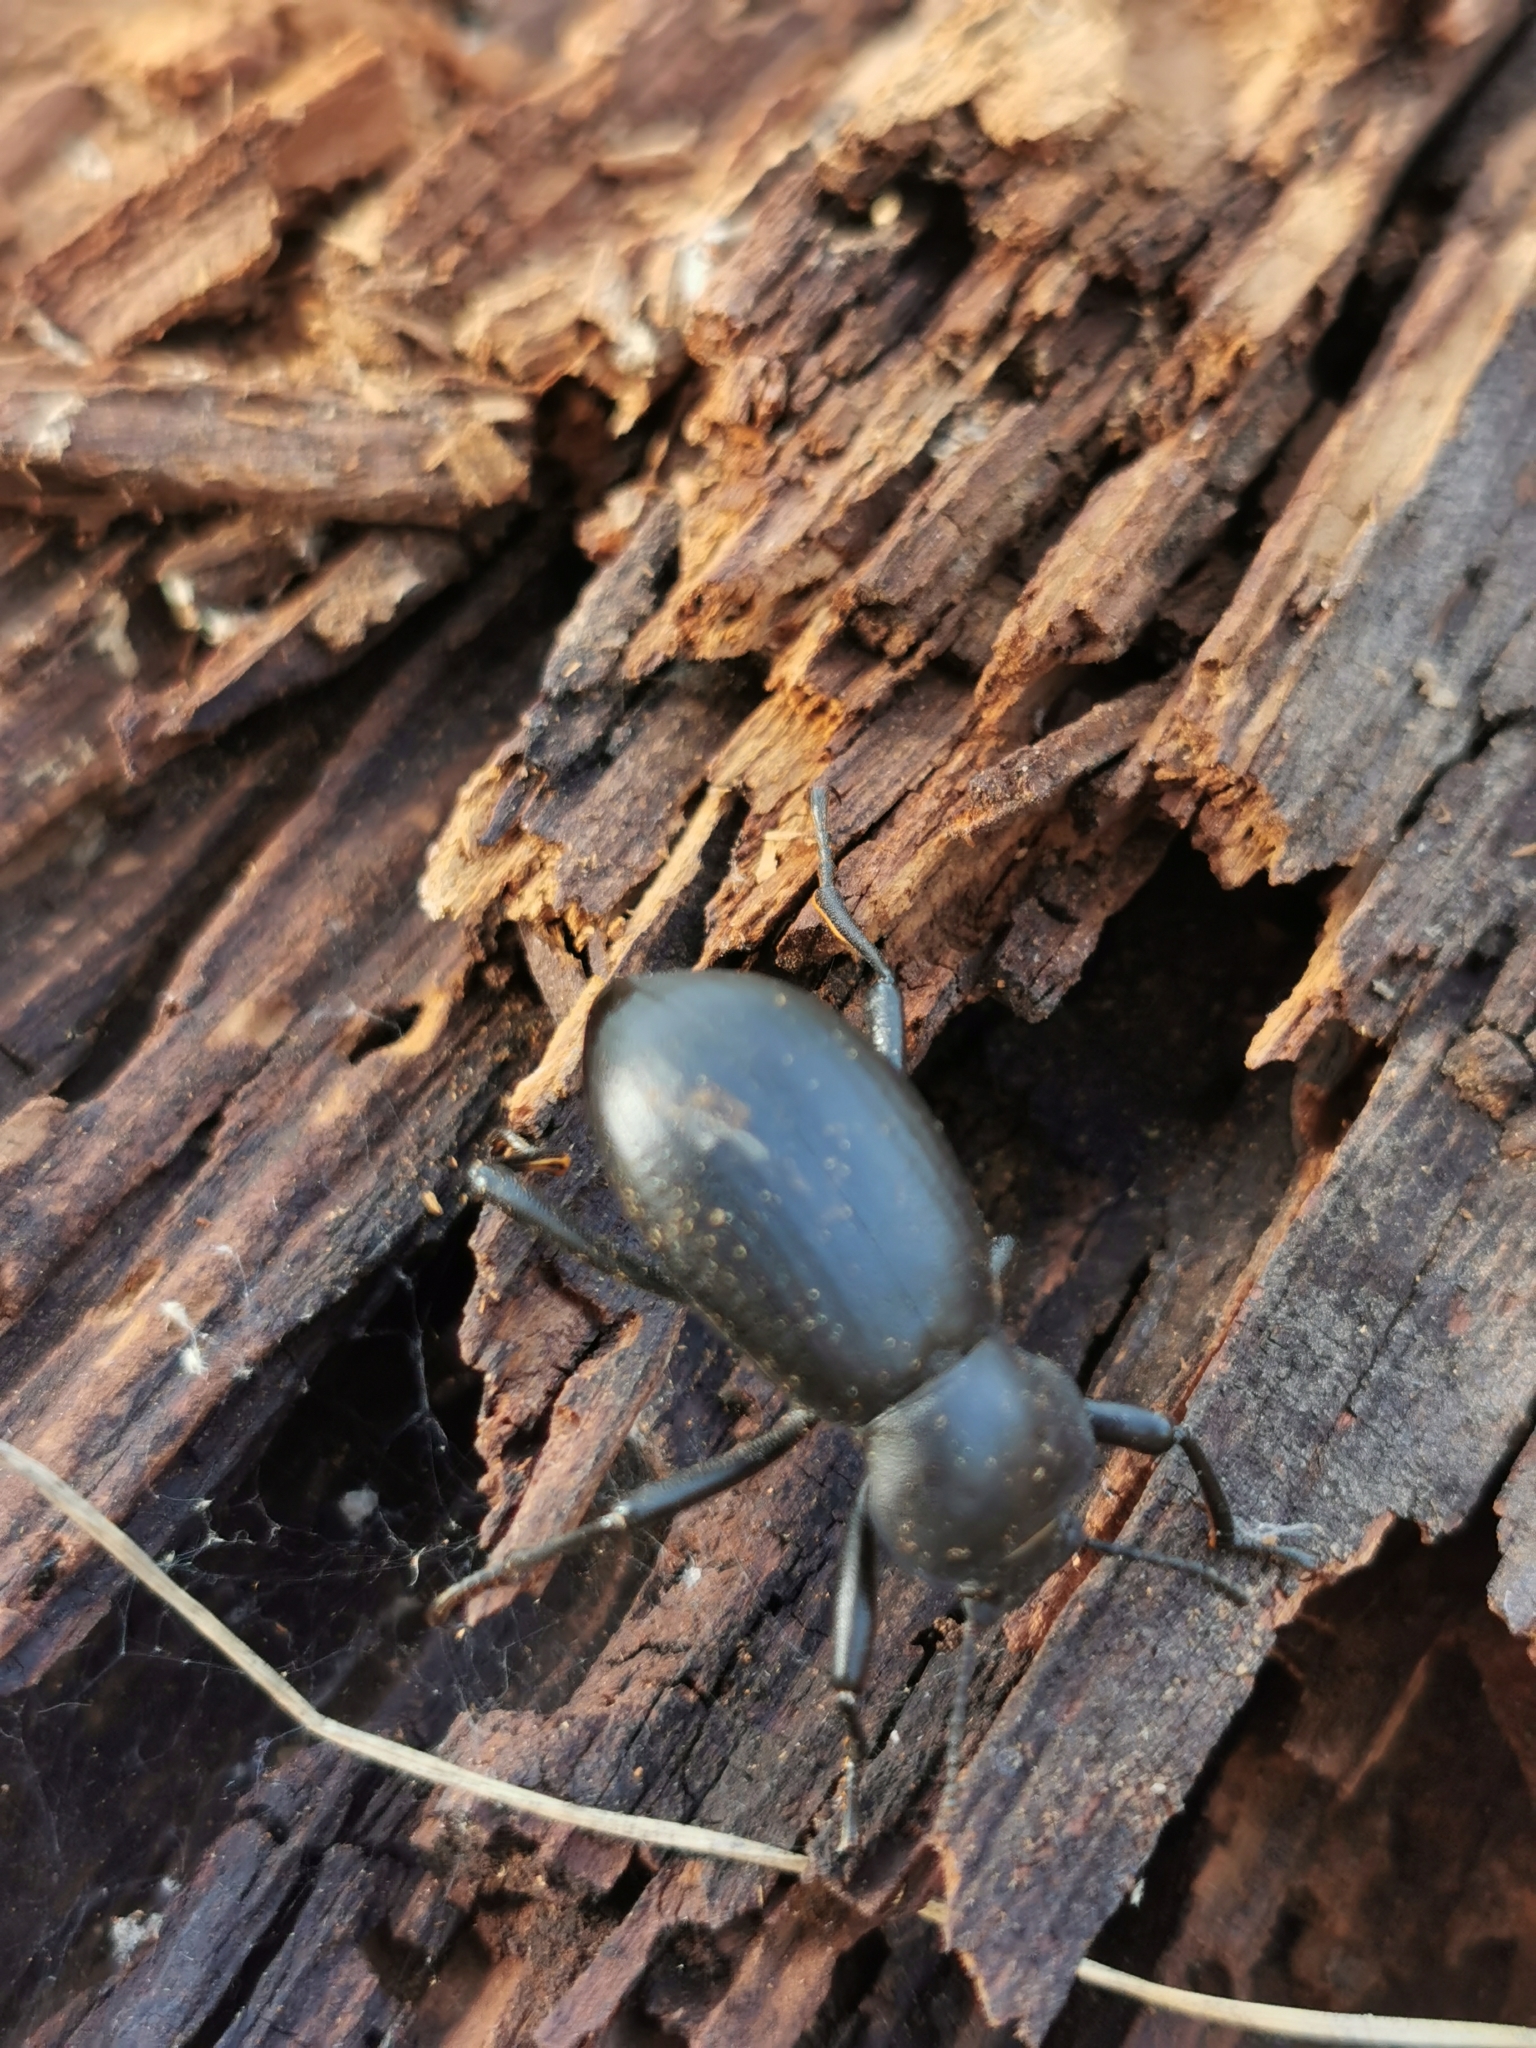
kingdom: Animalia
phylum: Arthropoda
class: Insecta
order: Coleoptera
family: Tenebrionidae
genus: Coelocnemis
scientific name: Coelocnemis dilaticollis
